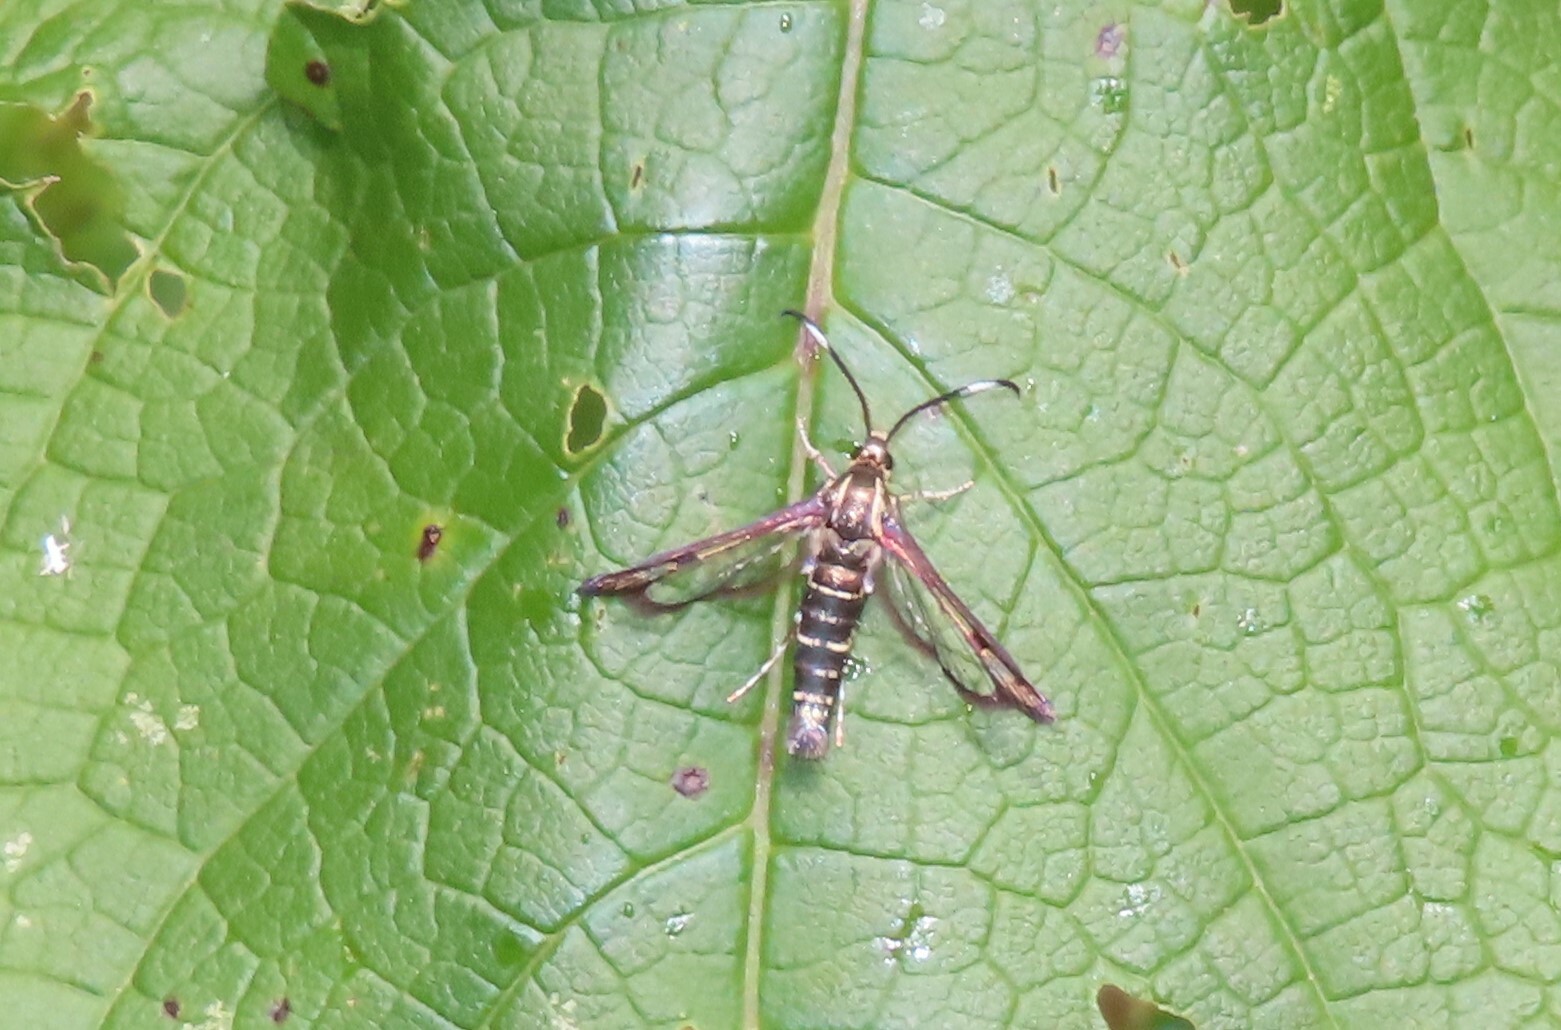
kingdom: Animalia
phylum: Arthropoda
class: Insecta
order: Lepidoptera
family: Sesiidae
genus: Carmenta
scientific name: Carmenta ithacae
